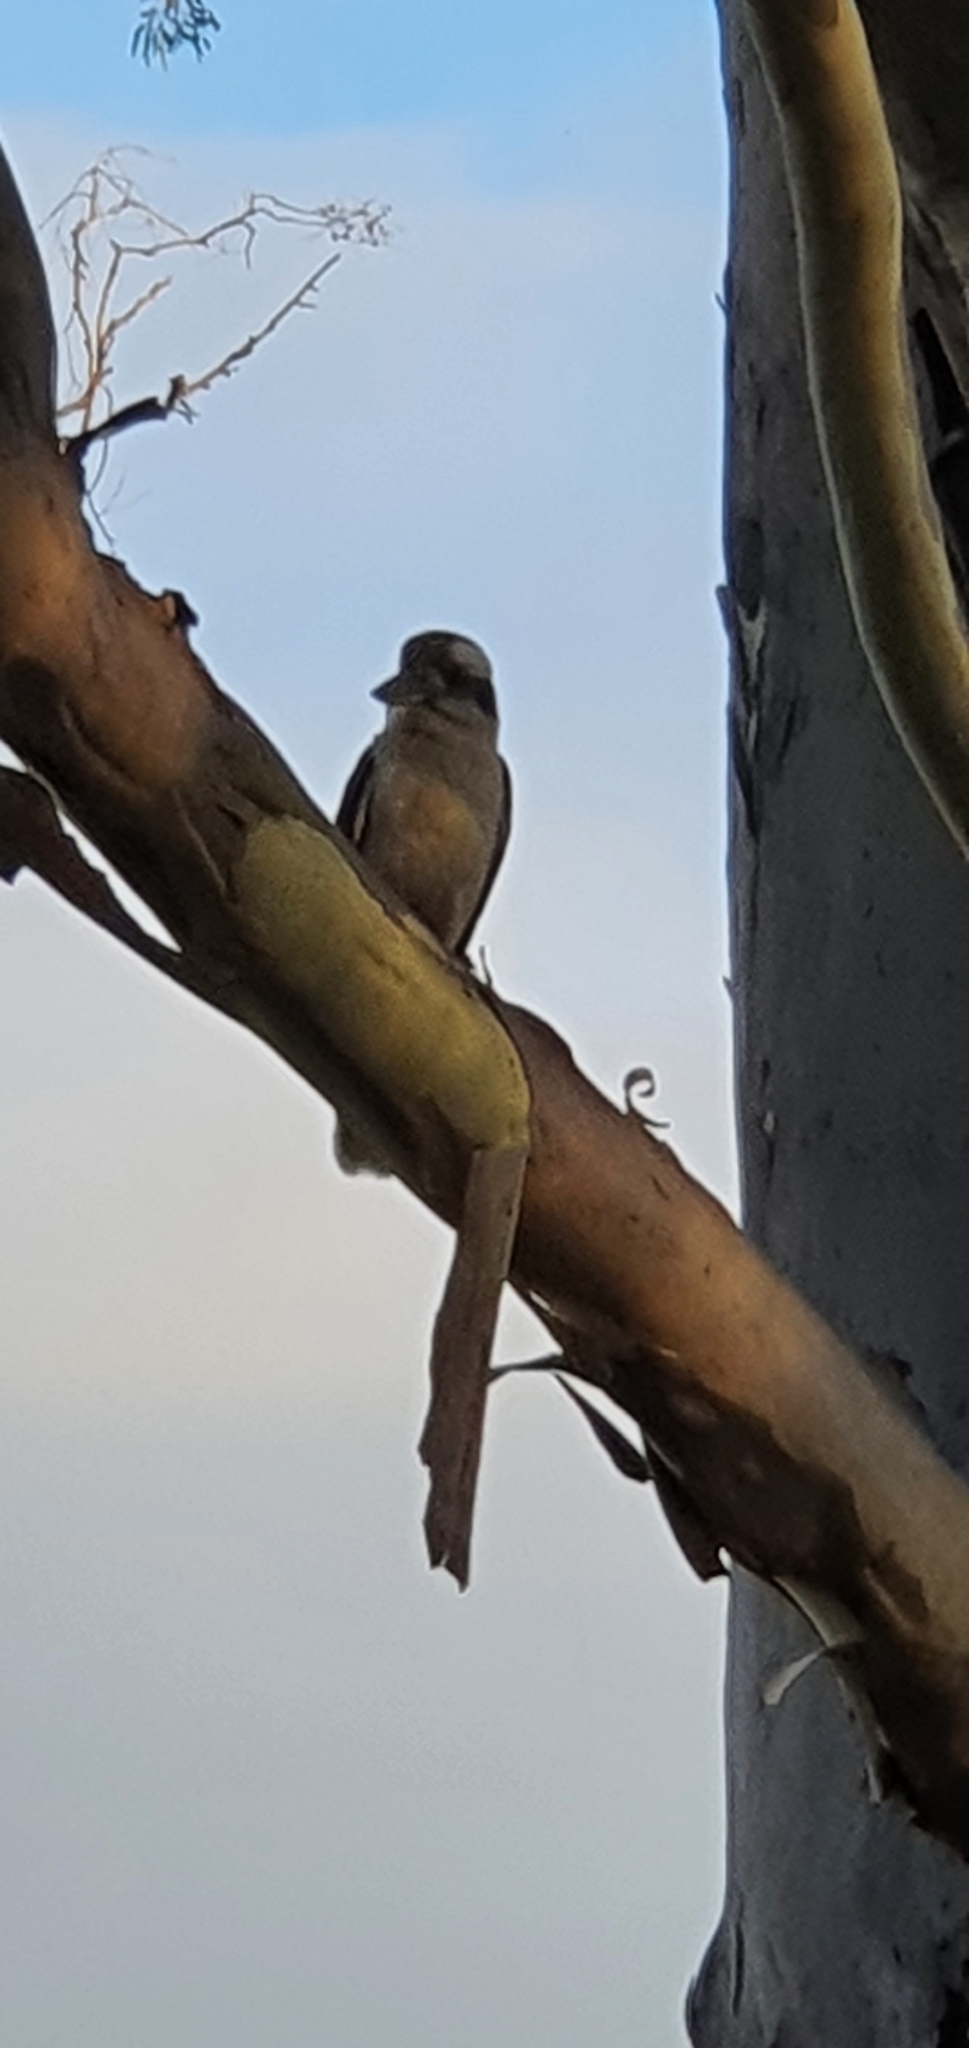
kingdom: Animalia
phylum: Chordata
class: Aves
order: Coraciiformes
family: Alcedinidae
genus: Dacelo
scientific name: Dacelo novaeguineae
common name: Laughing kookaburra
